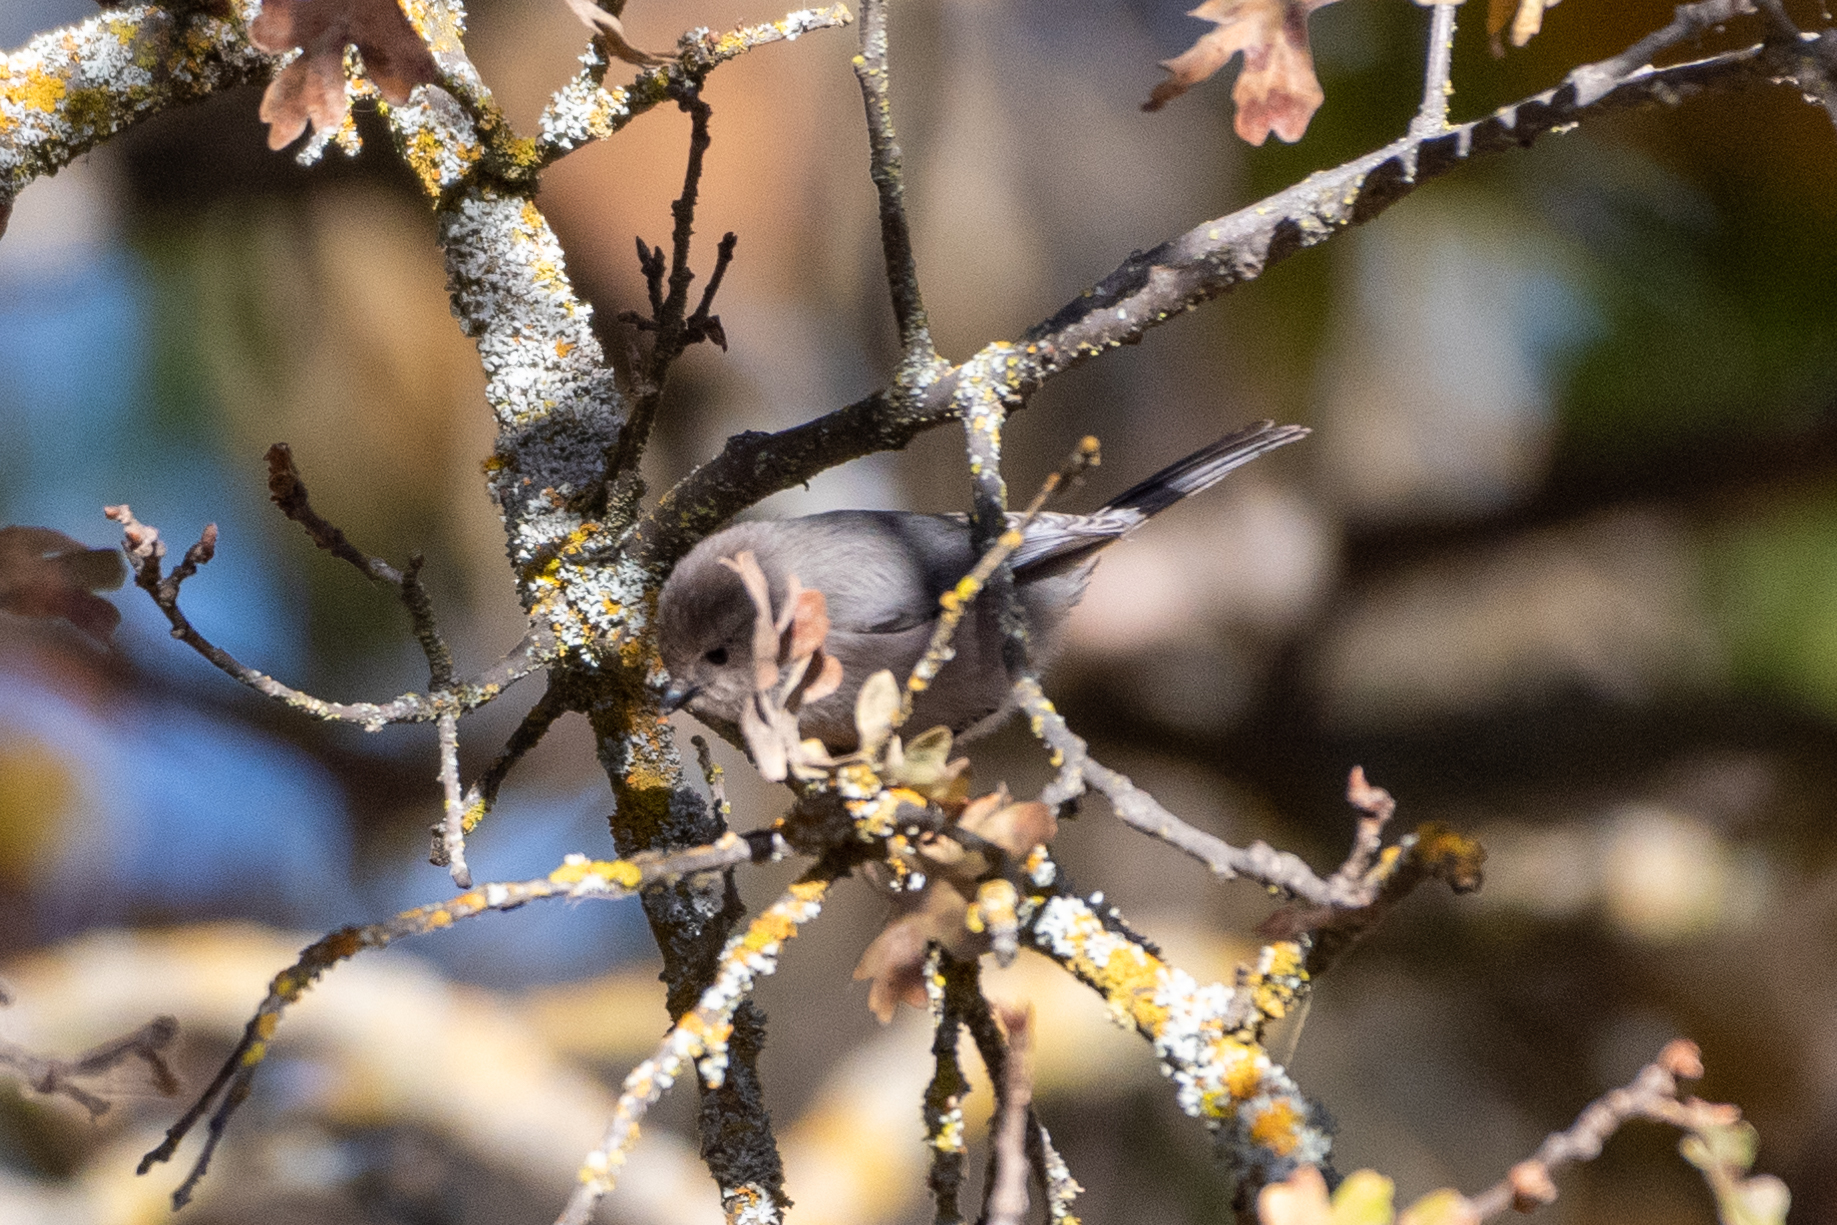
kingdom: Animalia
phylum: Chordata
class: Aves
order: Passeriformes
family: Aegithalidae
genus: Psaltriparus
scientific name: Psaltriparus minimus
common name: American bushtit
